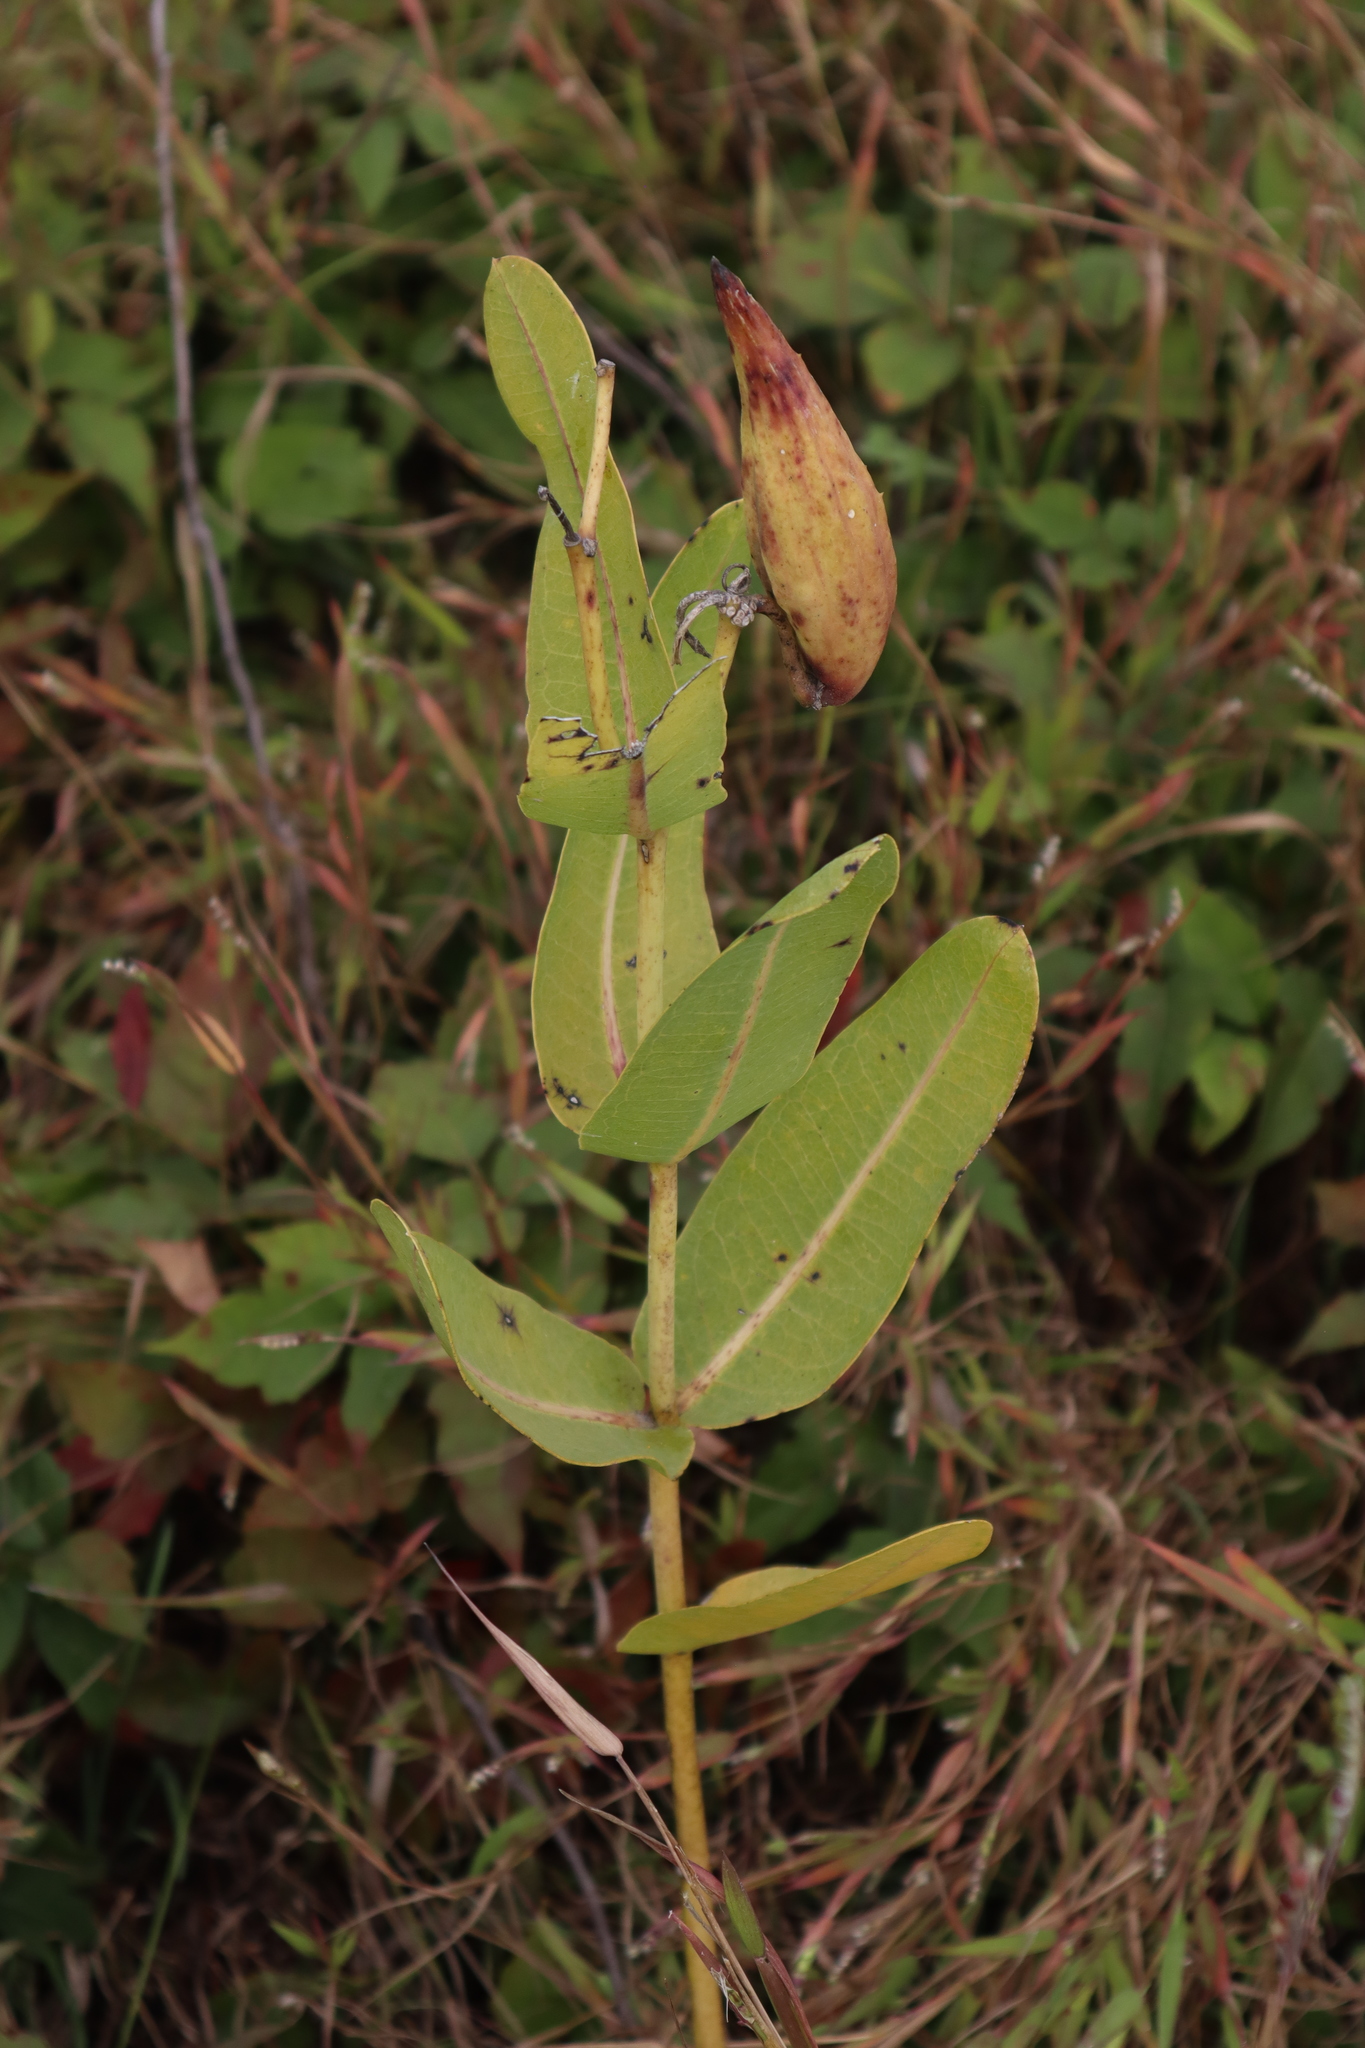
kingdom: Plantae
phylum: Tracheophyta
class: Magnoliopsida
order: Gentianales
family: Apocynaceae
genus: Asclepias
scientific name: Asclepias sullivantii
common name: Prairie milkweed
